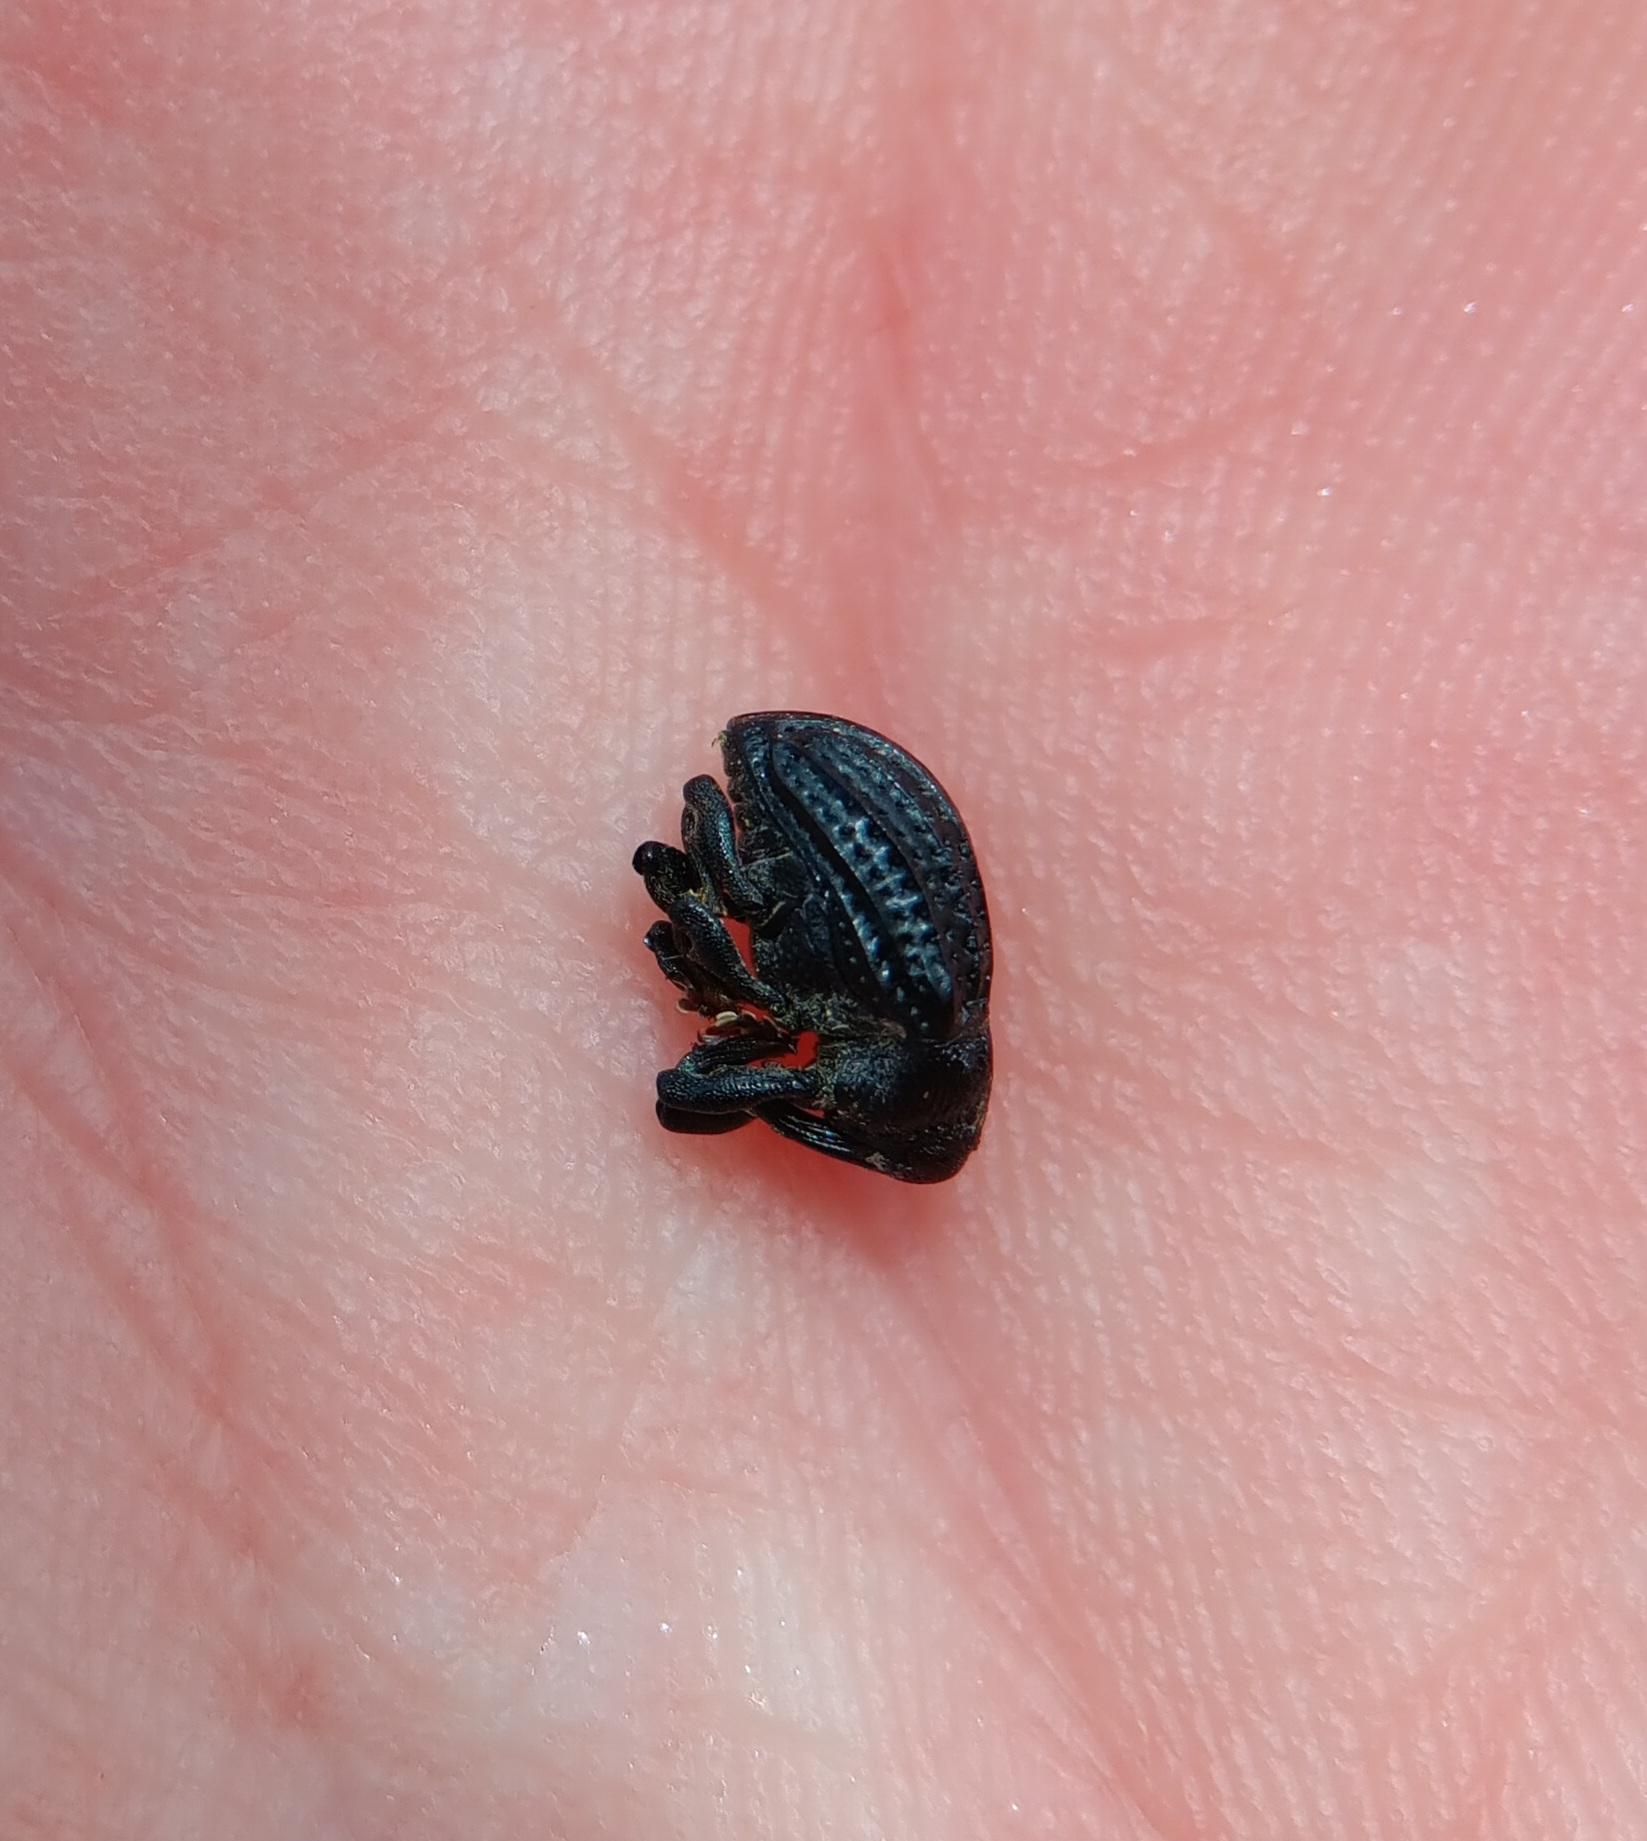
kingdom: Animalia
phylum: Arthropoda
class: Insecta
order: Coleoptera
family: Curculionidae
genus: Rhyssomatus
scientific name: Rhyssomatus lineaticollis
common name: Milkweed stem weevil
